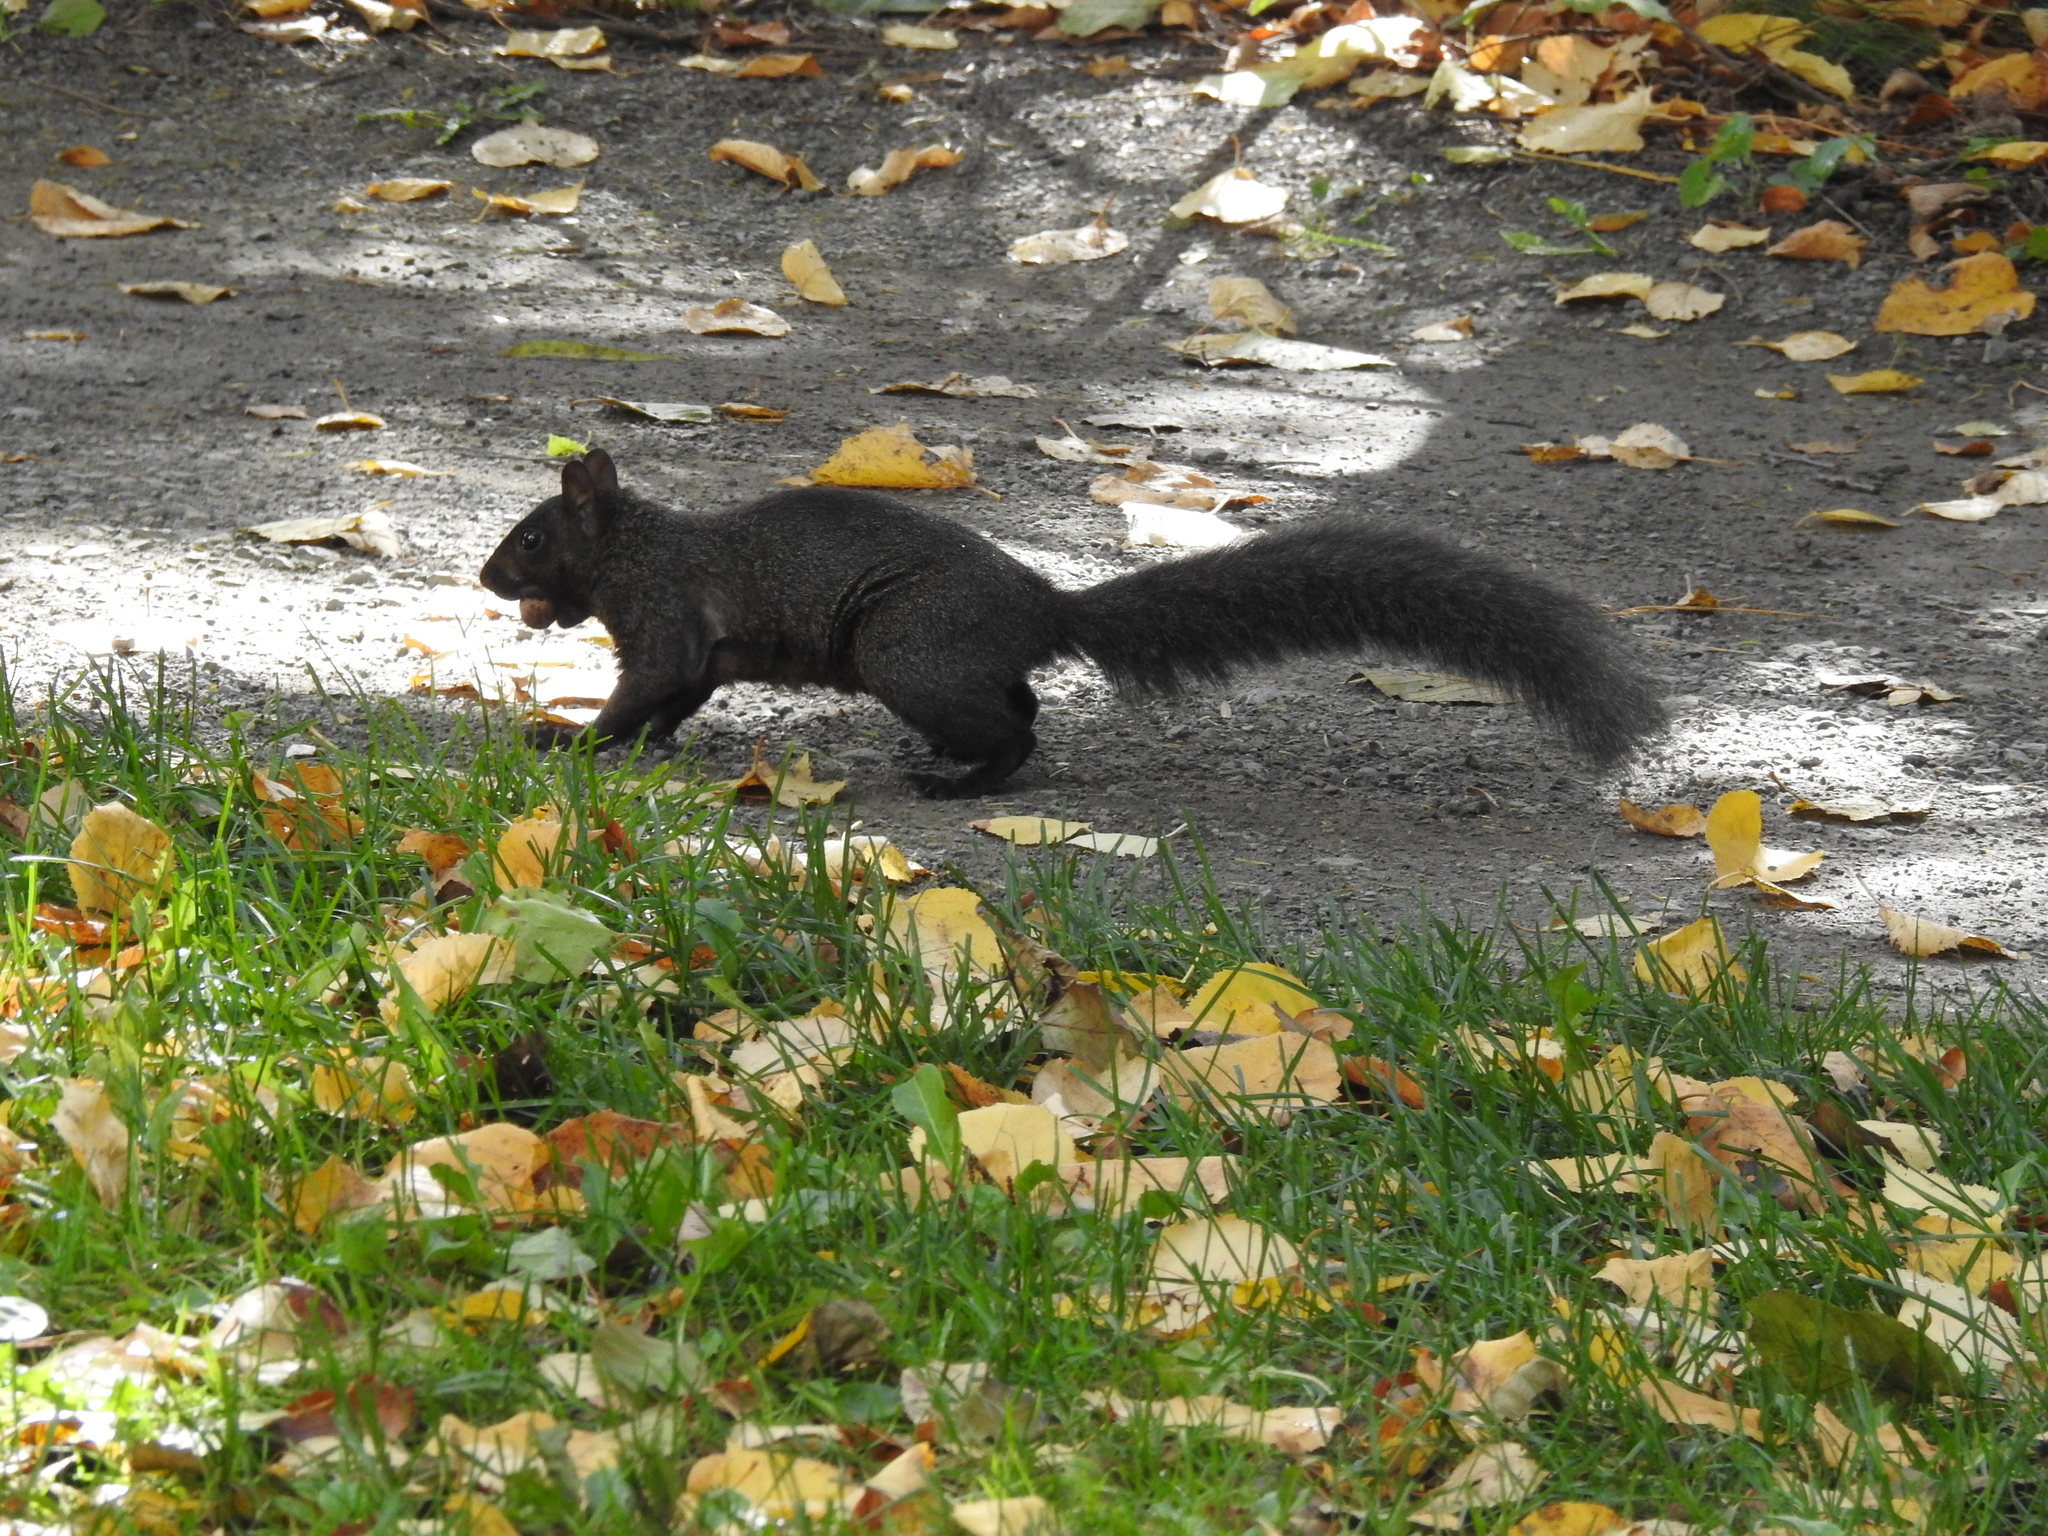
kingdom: Animalia
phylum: Chordata
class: Mammalia
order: Rodentia
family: Sciuridae
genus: Sciurus
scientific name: Sciurus carolinensis
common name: Eastern gray squirrel
